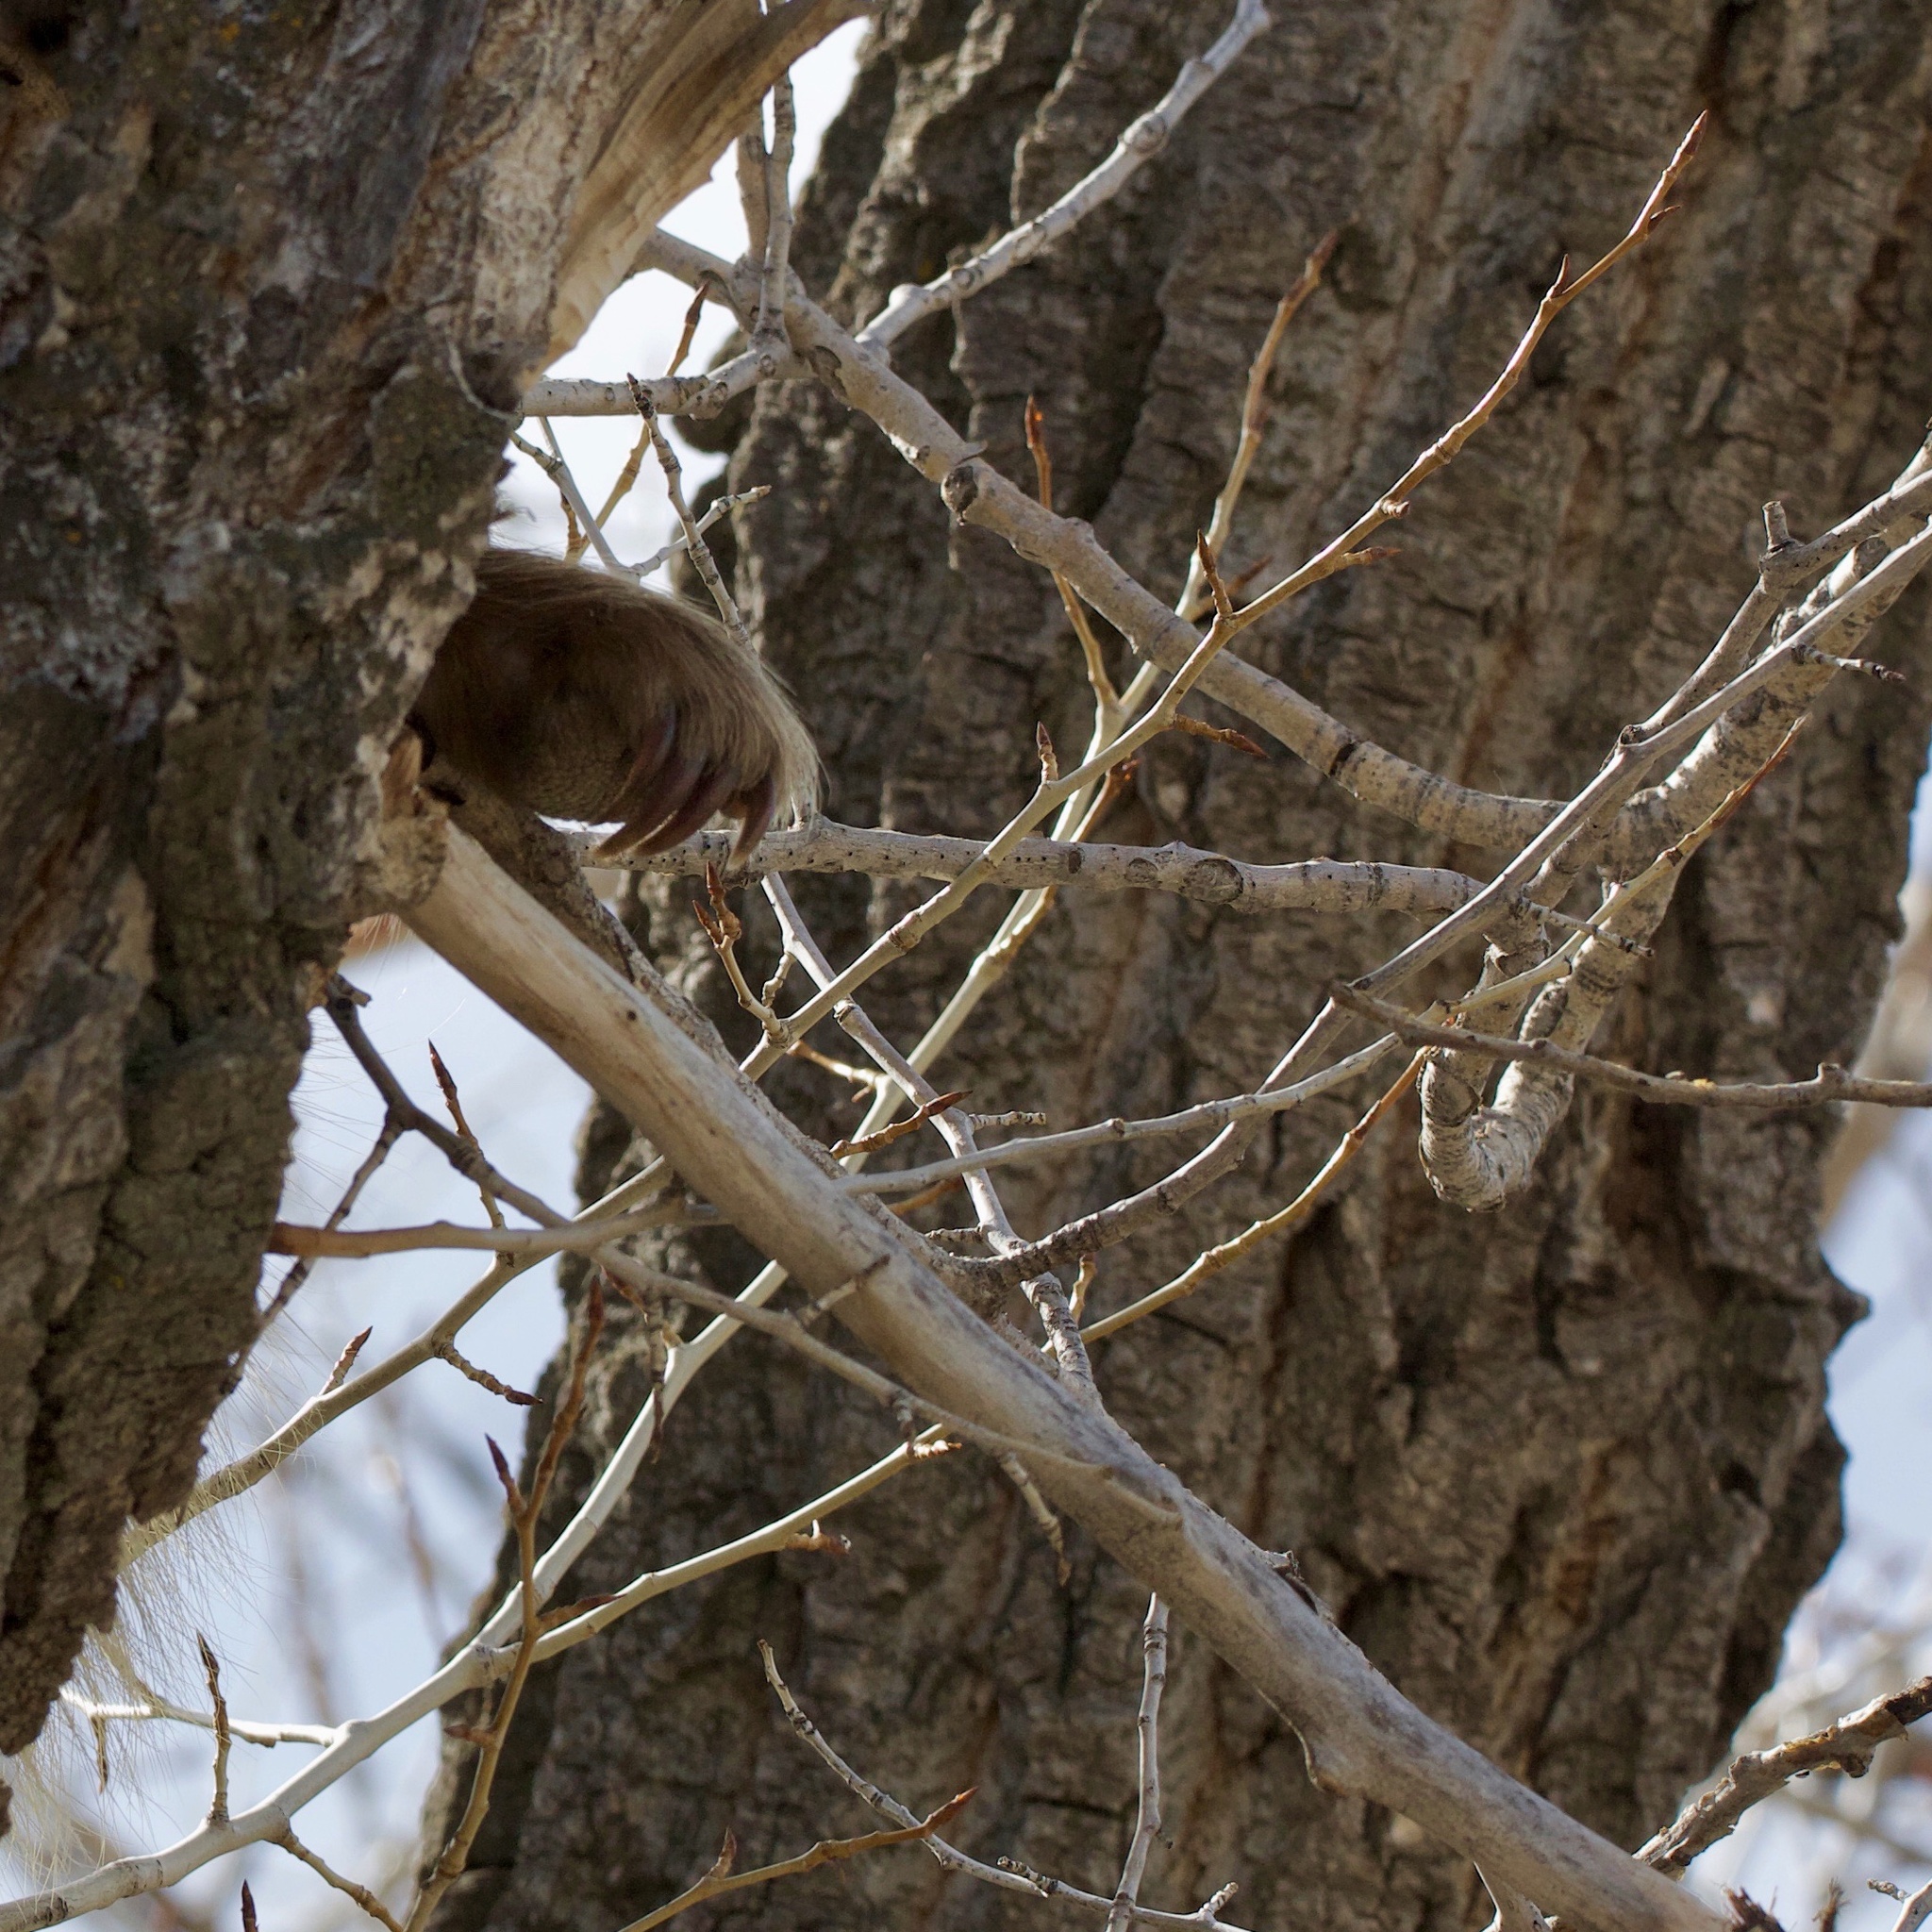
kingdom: Animalia
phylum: Chordata
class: Mammalia
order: Rodentia
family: Erethizontidae
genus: Erethizon
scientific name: Erethizon dorsatus
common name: North american porcupine
